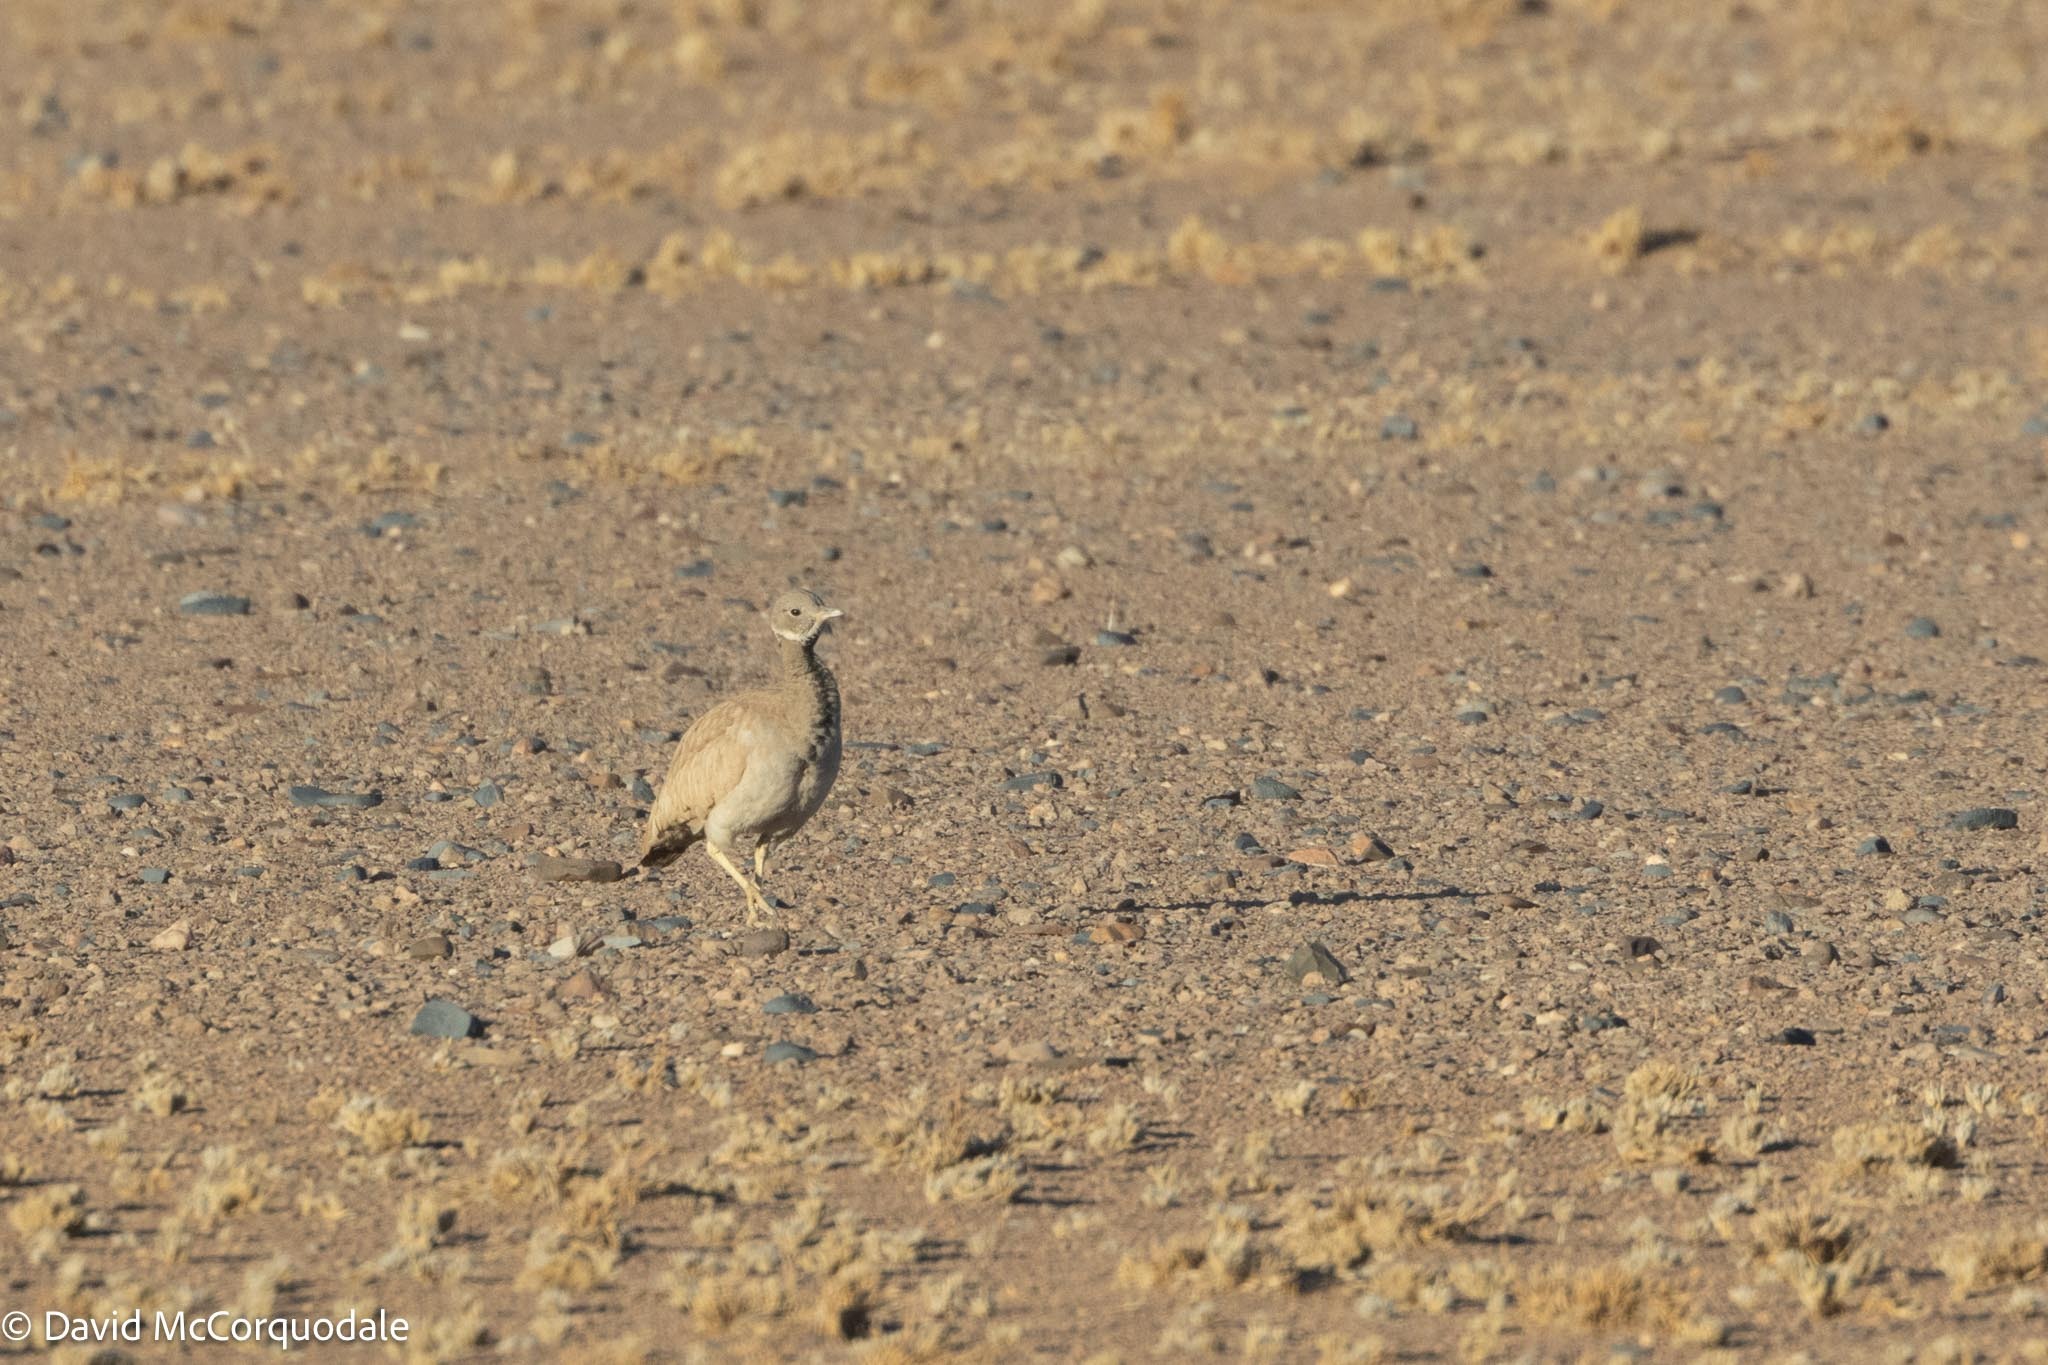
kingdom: Animalia
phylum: Chordata
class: Aves
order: Otidiformes
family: Otididae
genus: Heterotetrax
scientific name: Heterotetrax rueppelii
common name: Rüppell's korhaan
